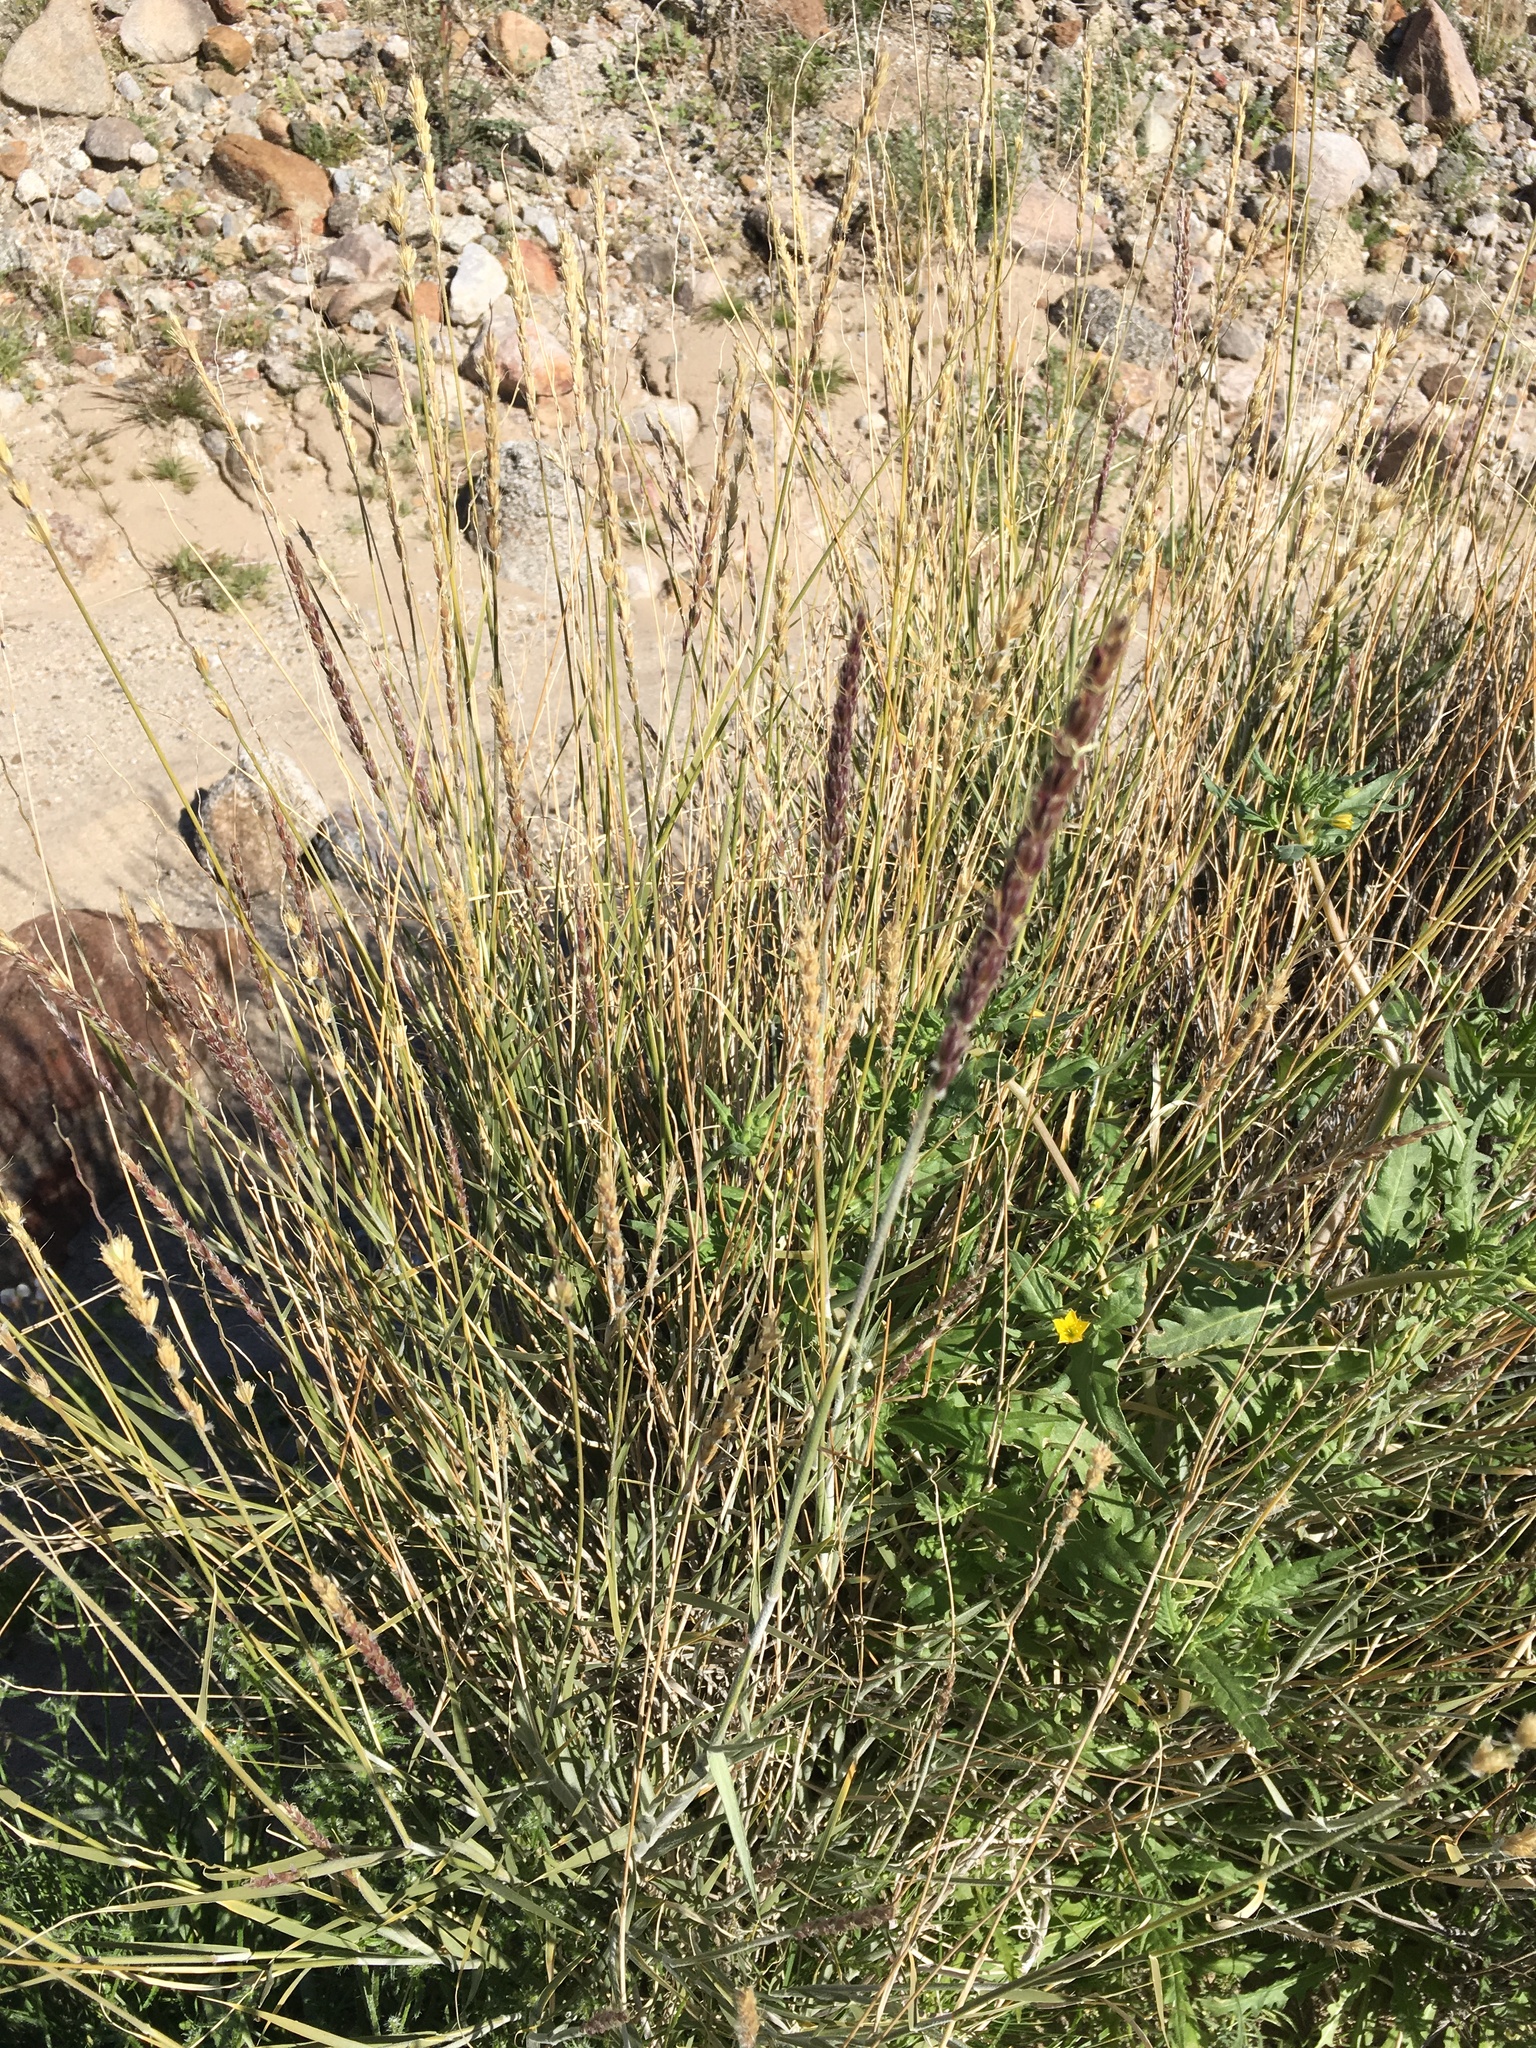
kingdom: Plantae
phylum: Tracheophyta
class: Liliopsida
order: Poales
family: Poaceae
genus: Hilaria
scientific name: Hilaria rigida
